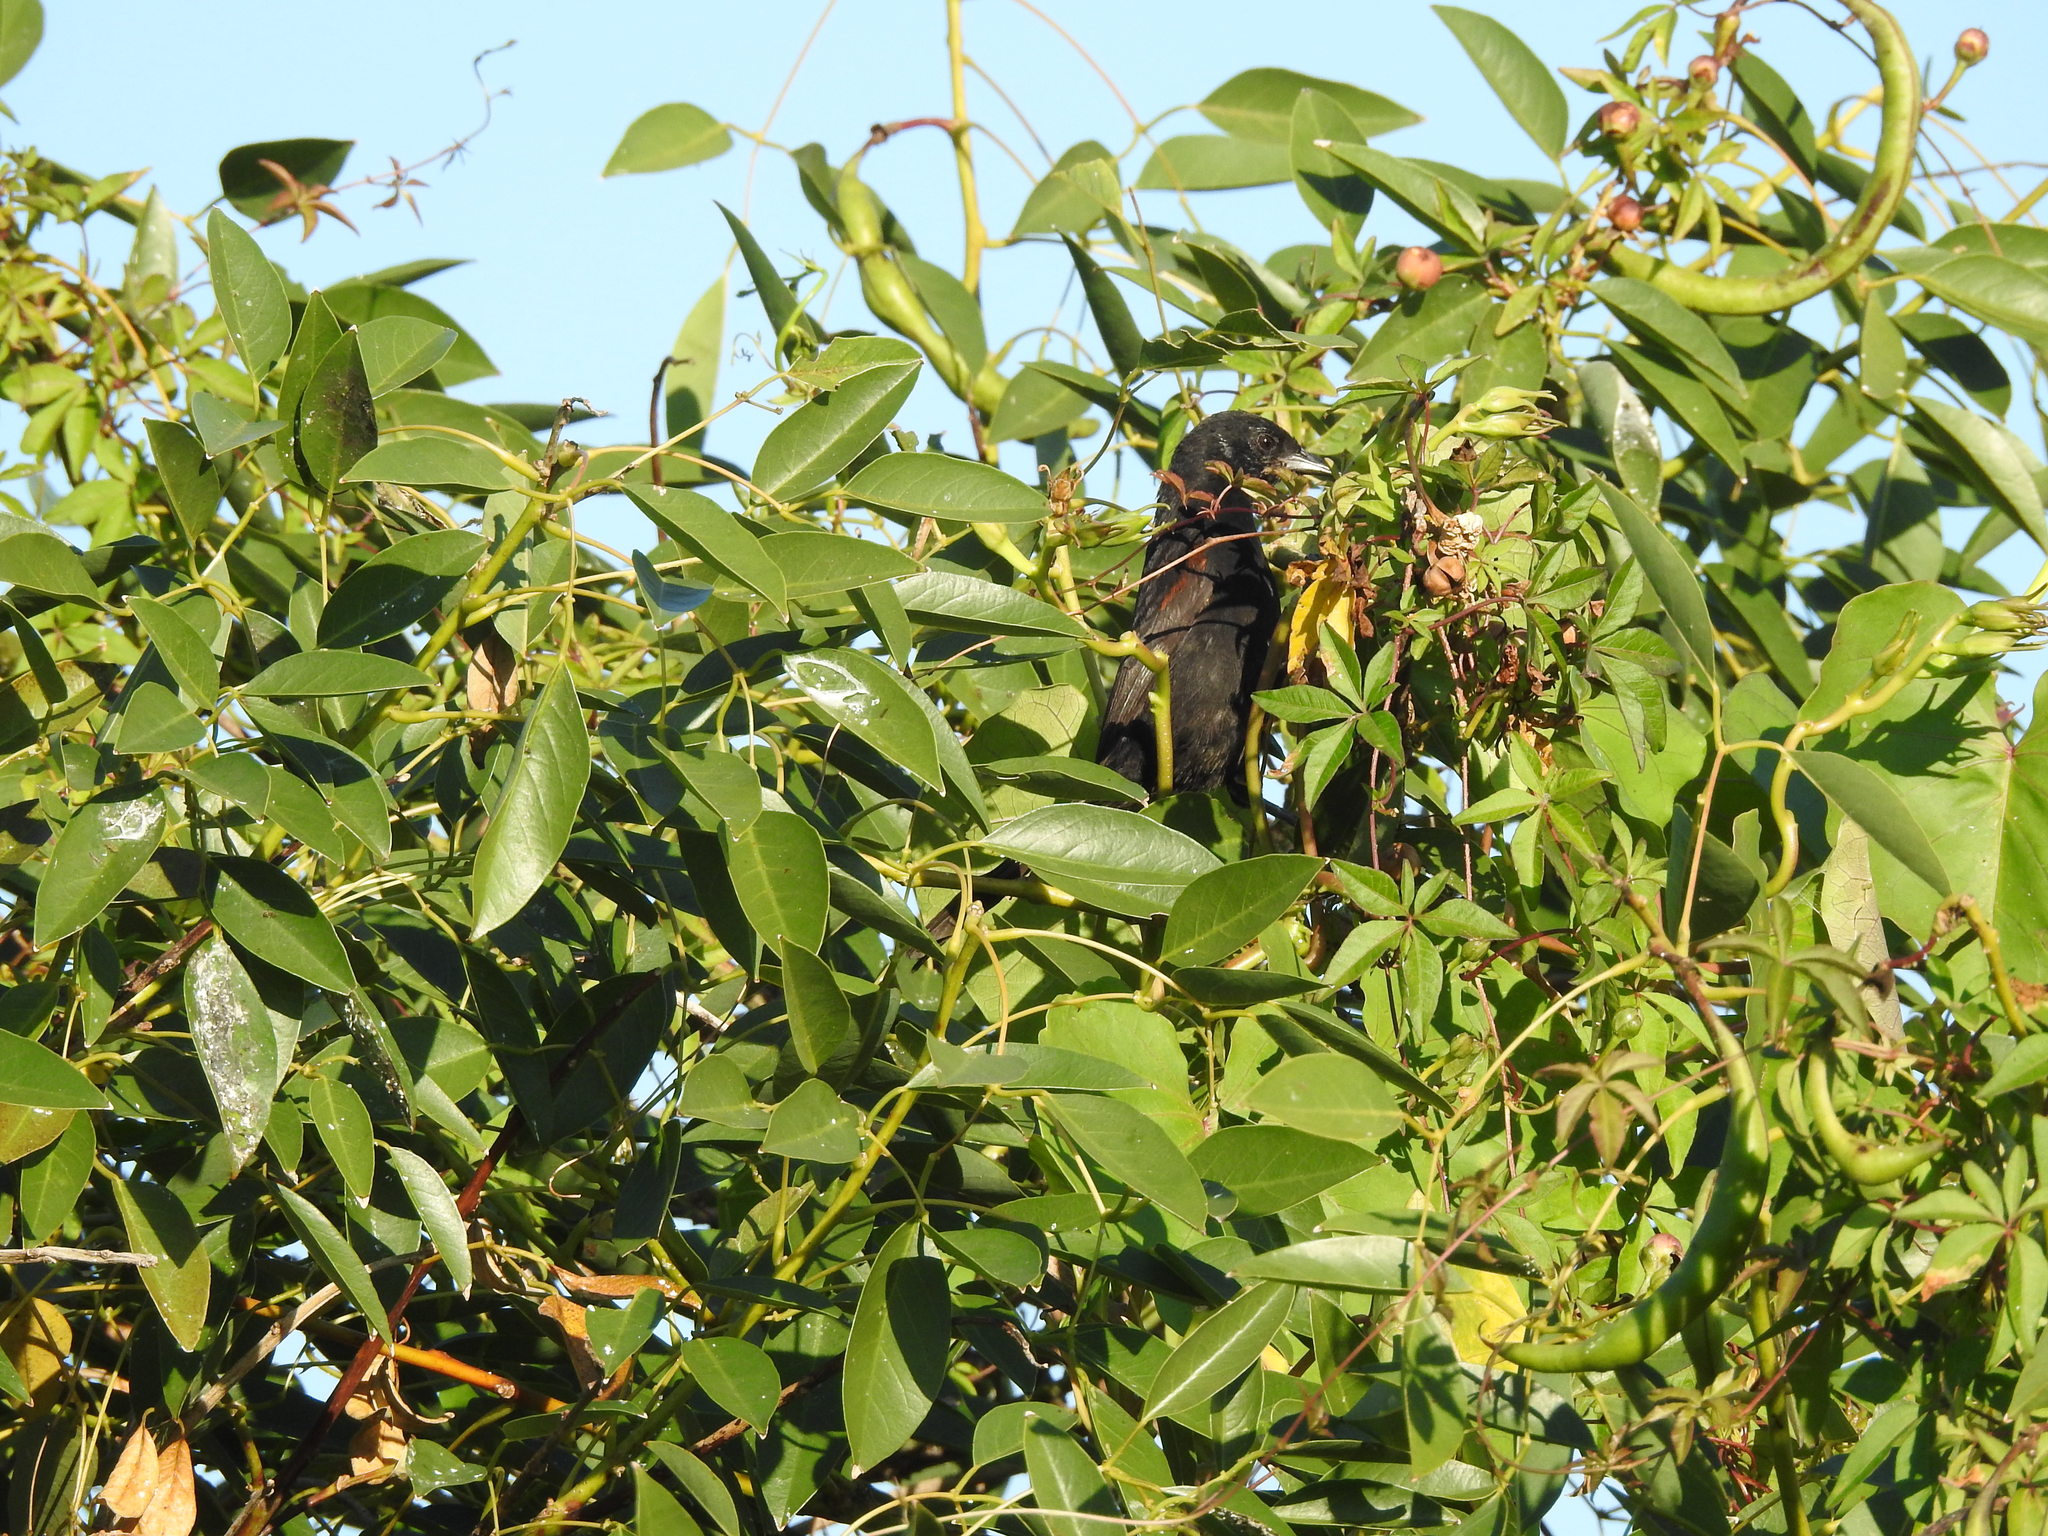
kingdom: Animalia
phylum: Chordata
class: Aves
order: Passeriformes
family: Icteridae
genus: Icterus
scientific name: Icterus cayanensis
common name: Epaulet oriole
